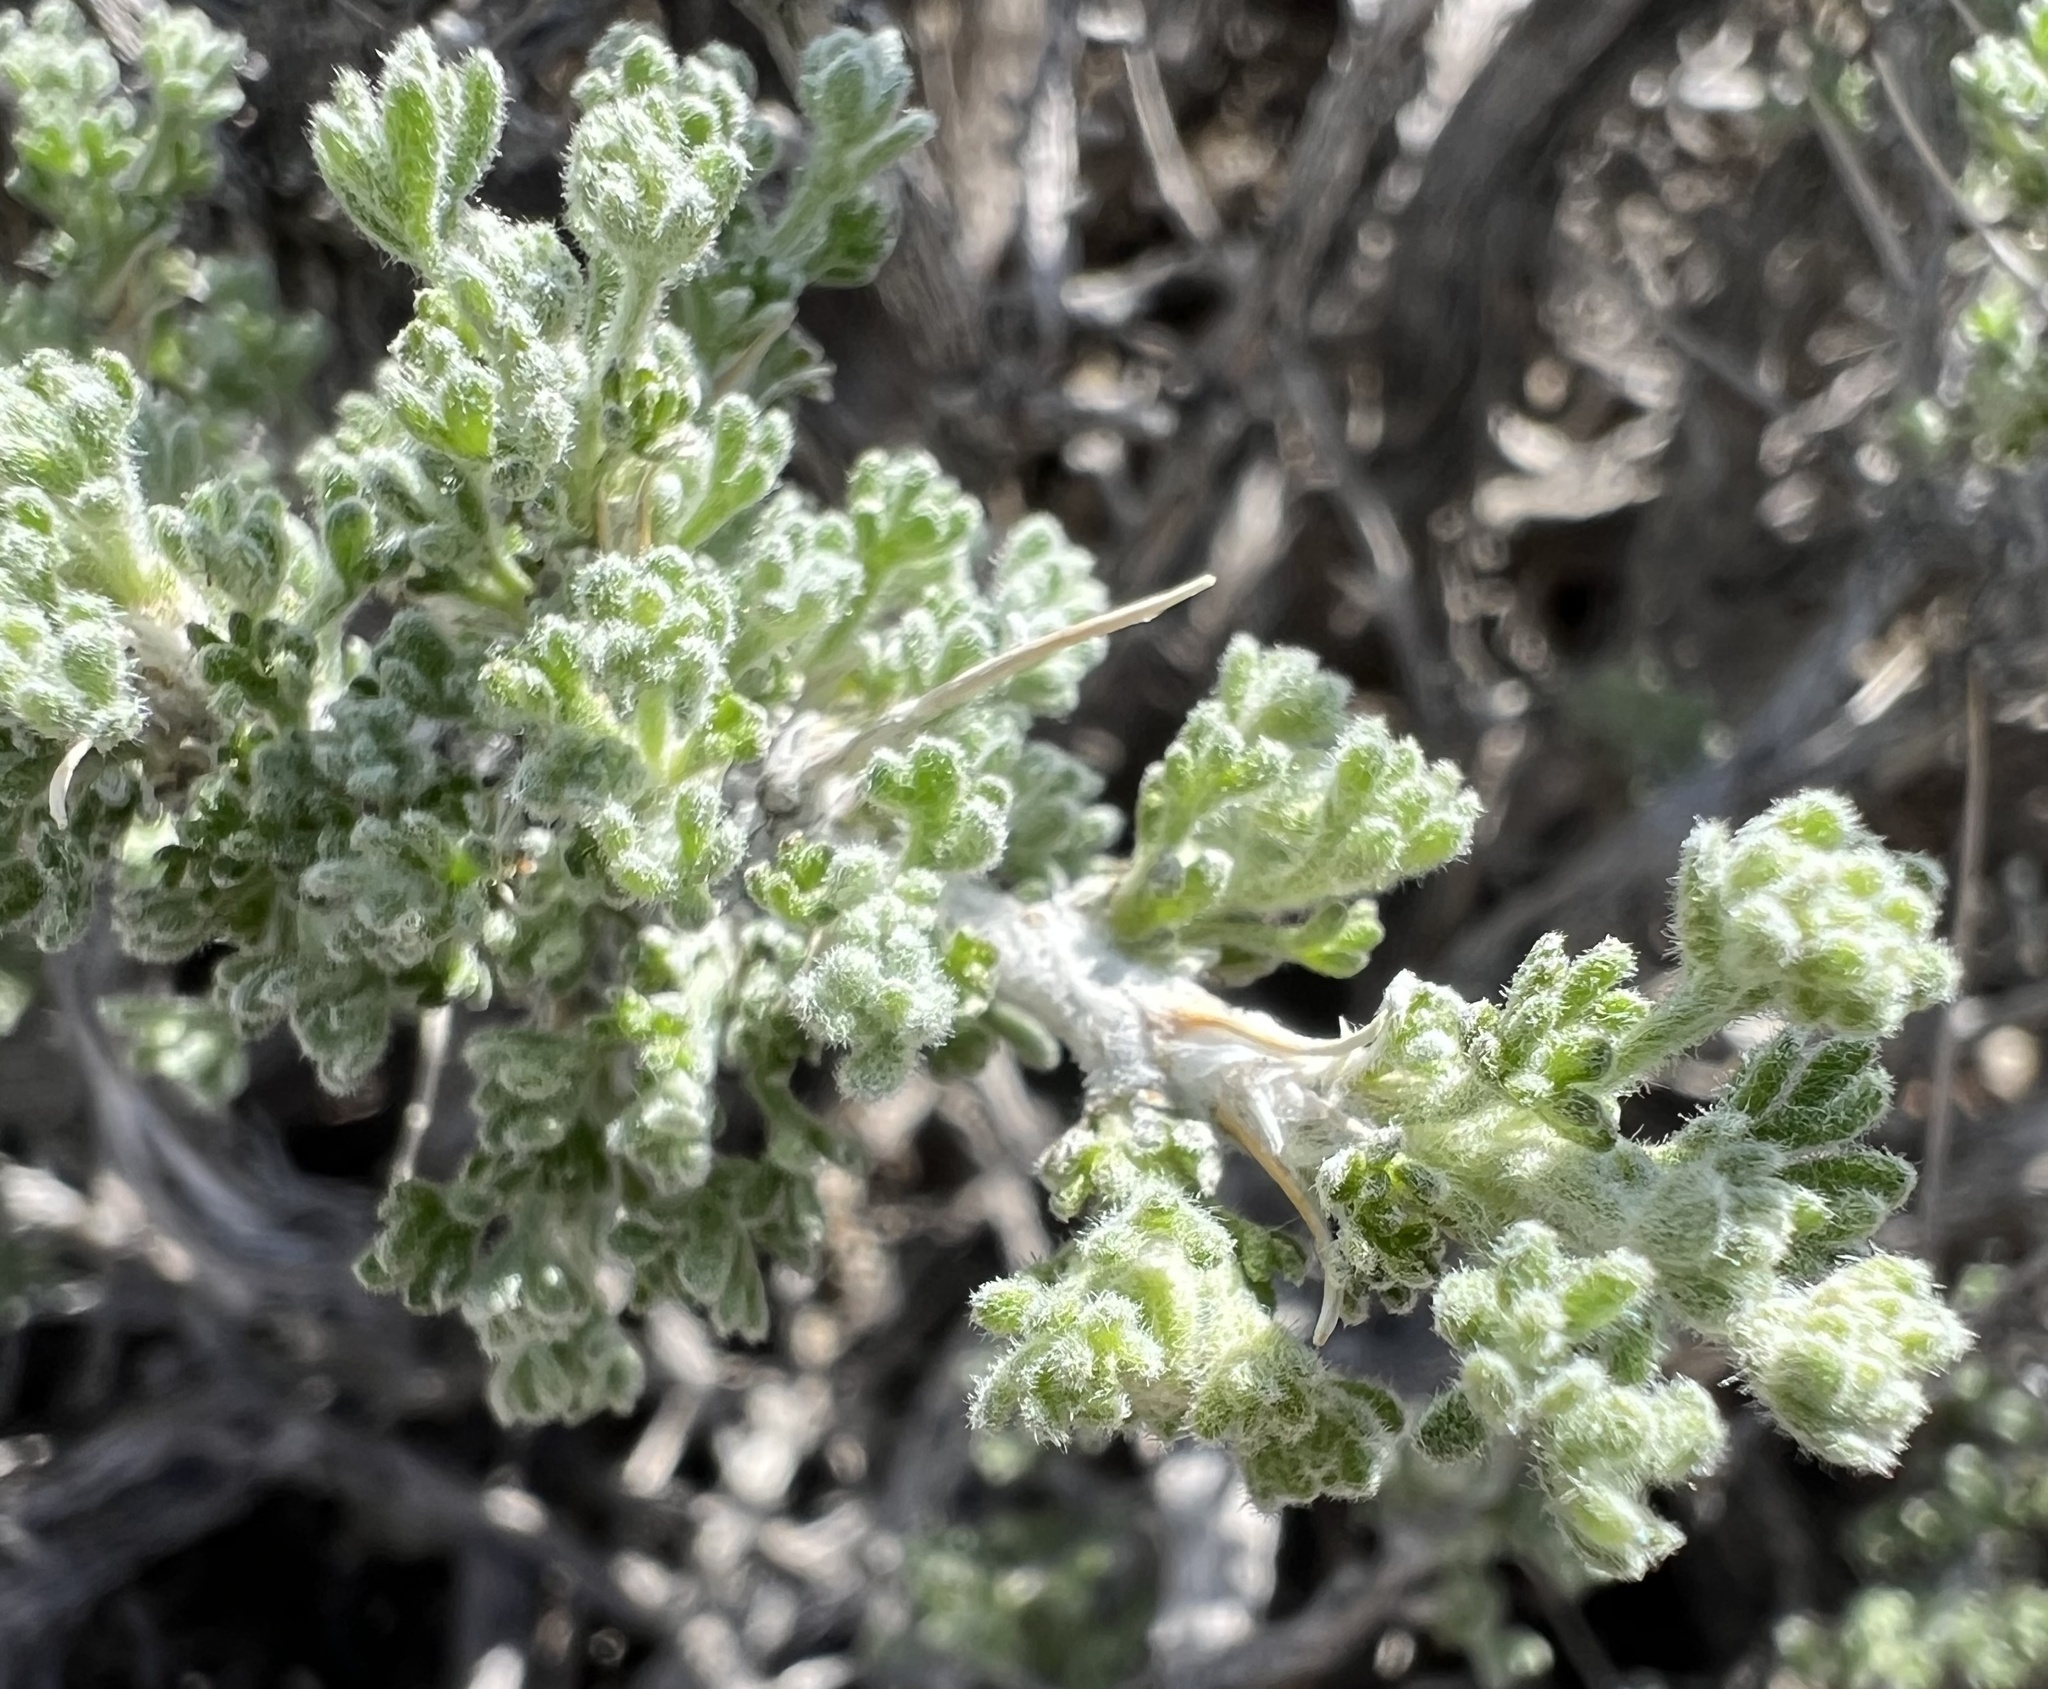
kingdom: Plantae
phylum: Tracheophyta
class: Magnoliopsida
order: Asterales
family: Asteraceae
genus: Artemisia
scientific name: Artemisia spinescens
